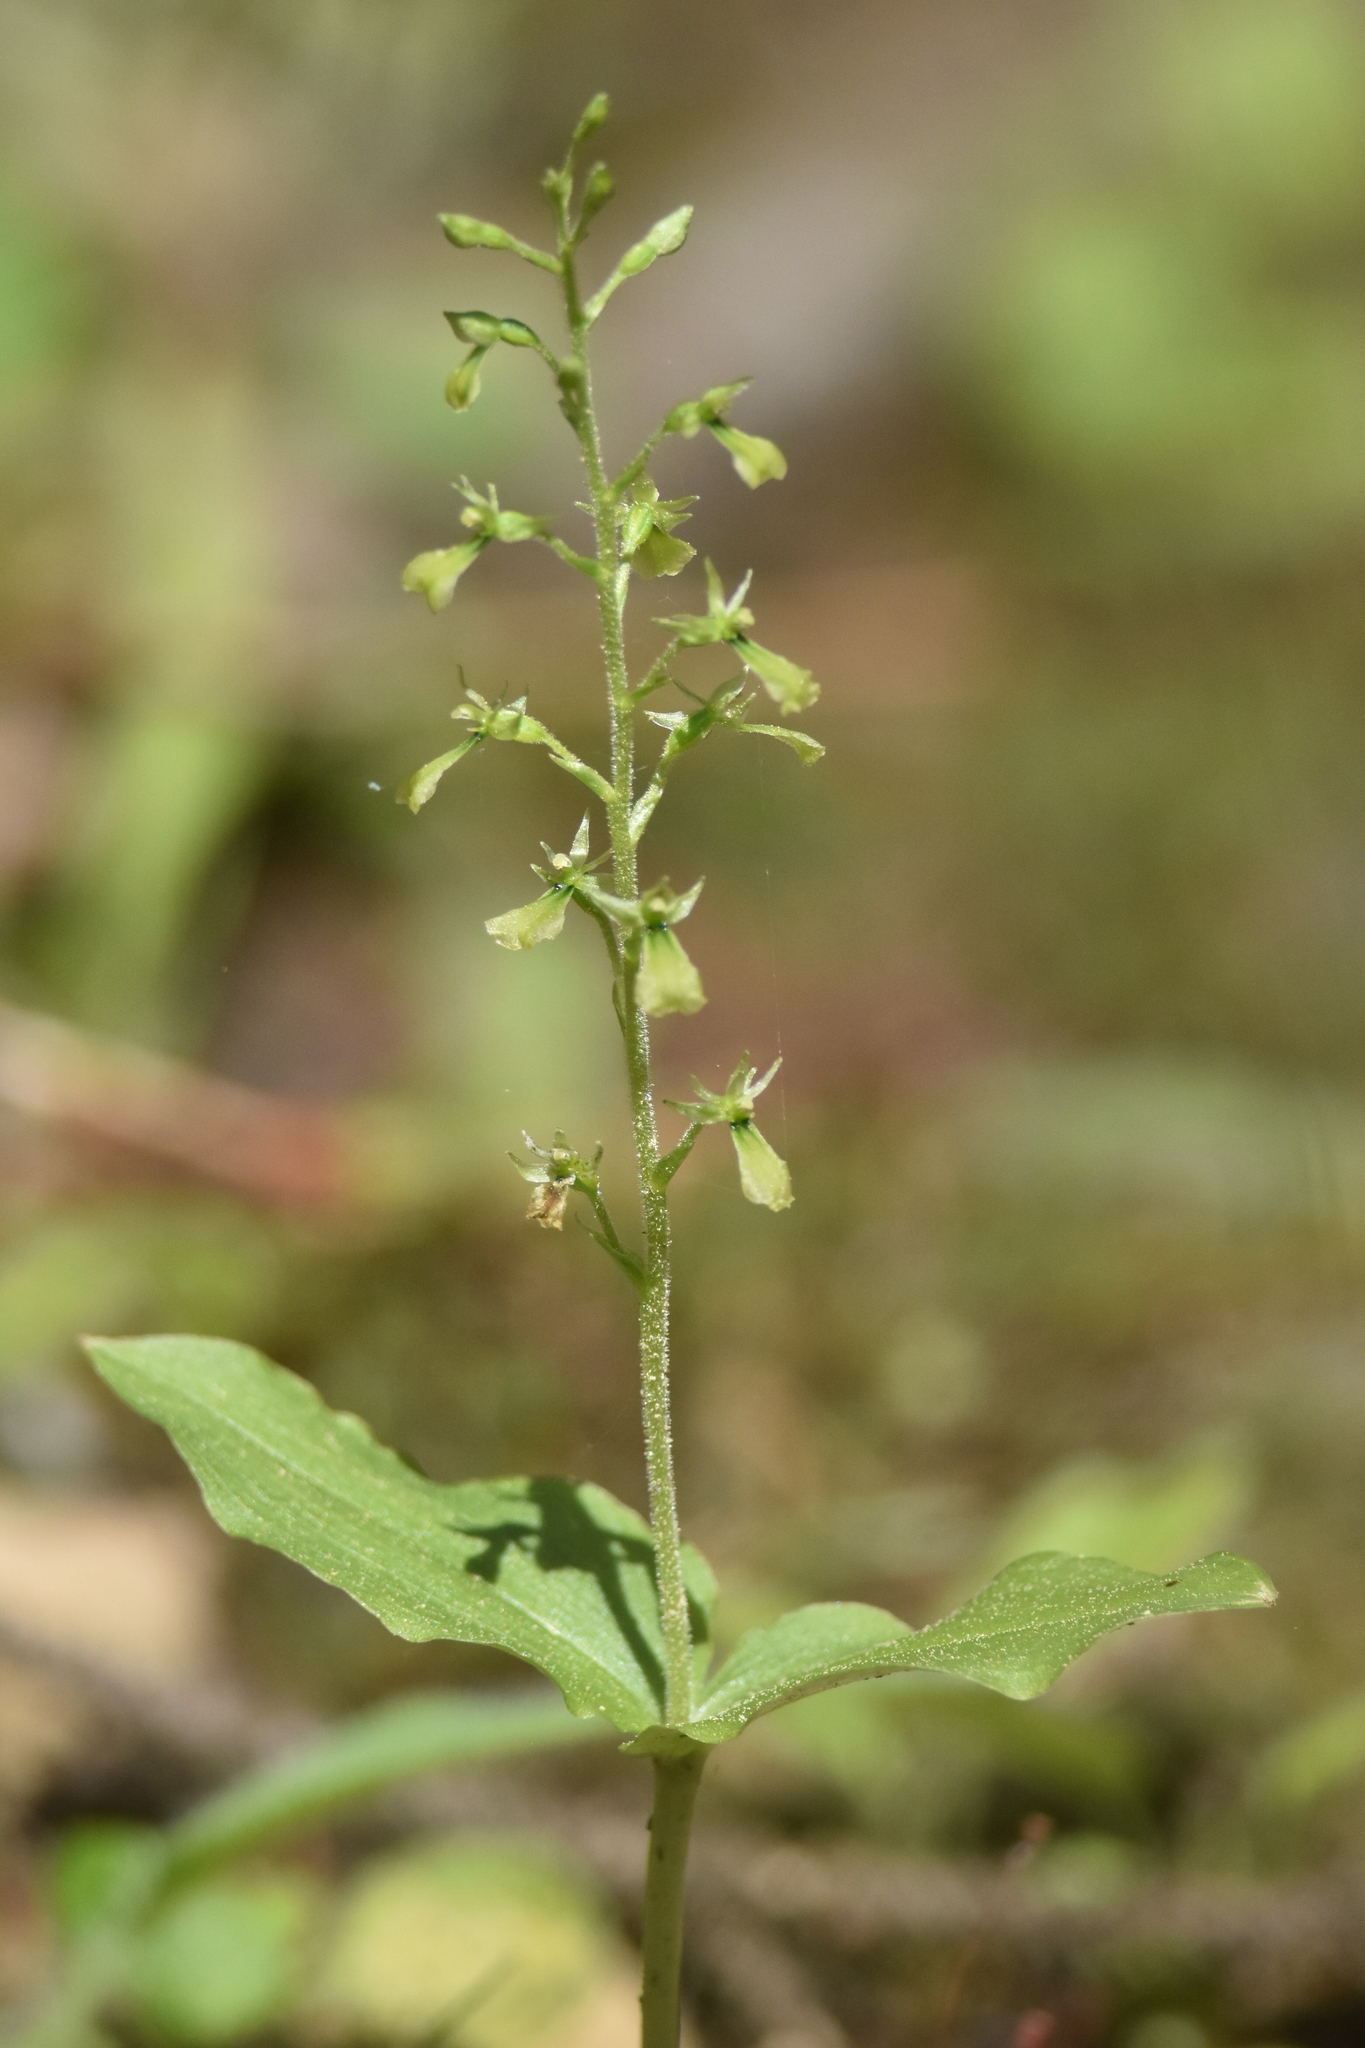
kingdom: Plantae
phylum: Tracheophyta
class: Liliopsida
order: Asparagales
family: Orchidaceae
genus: Neottia
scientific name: Neottia banksiana
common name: Northwestern twayblade
